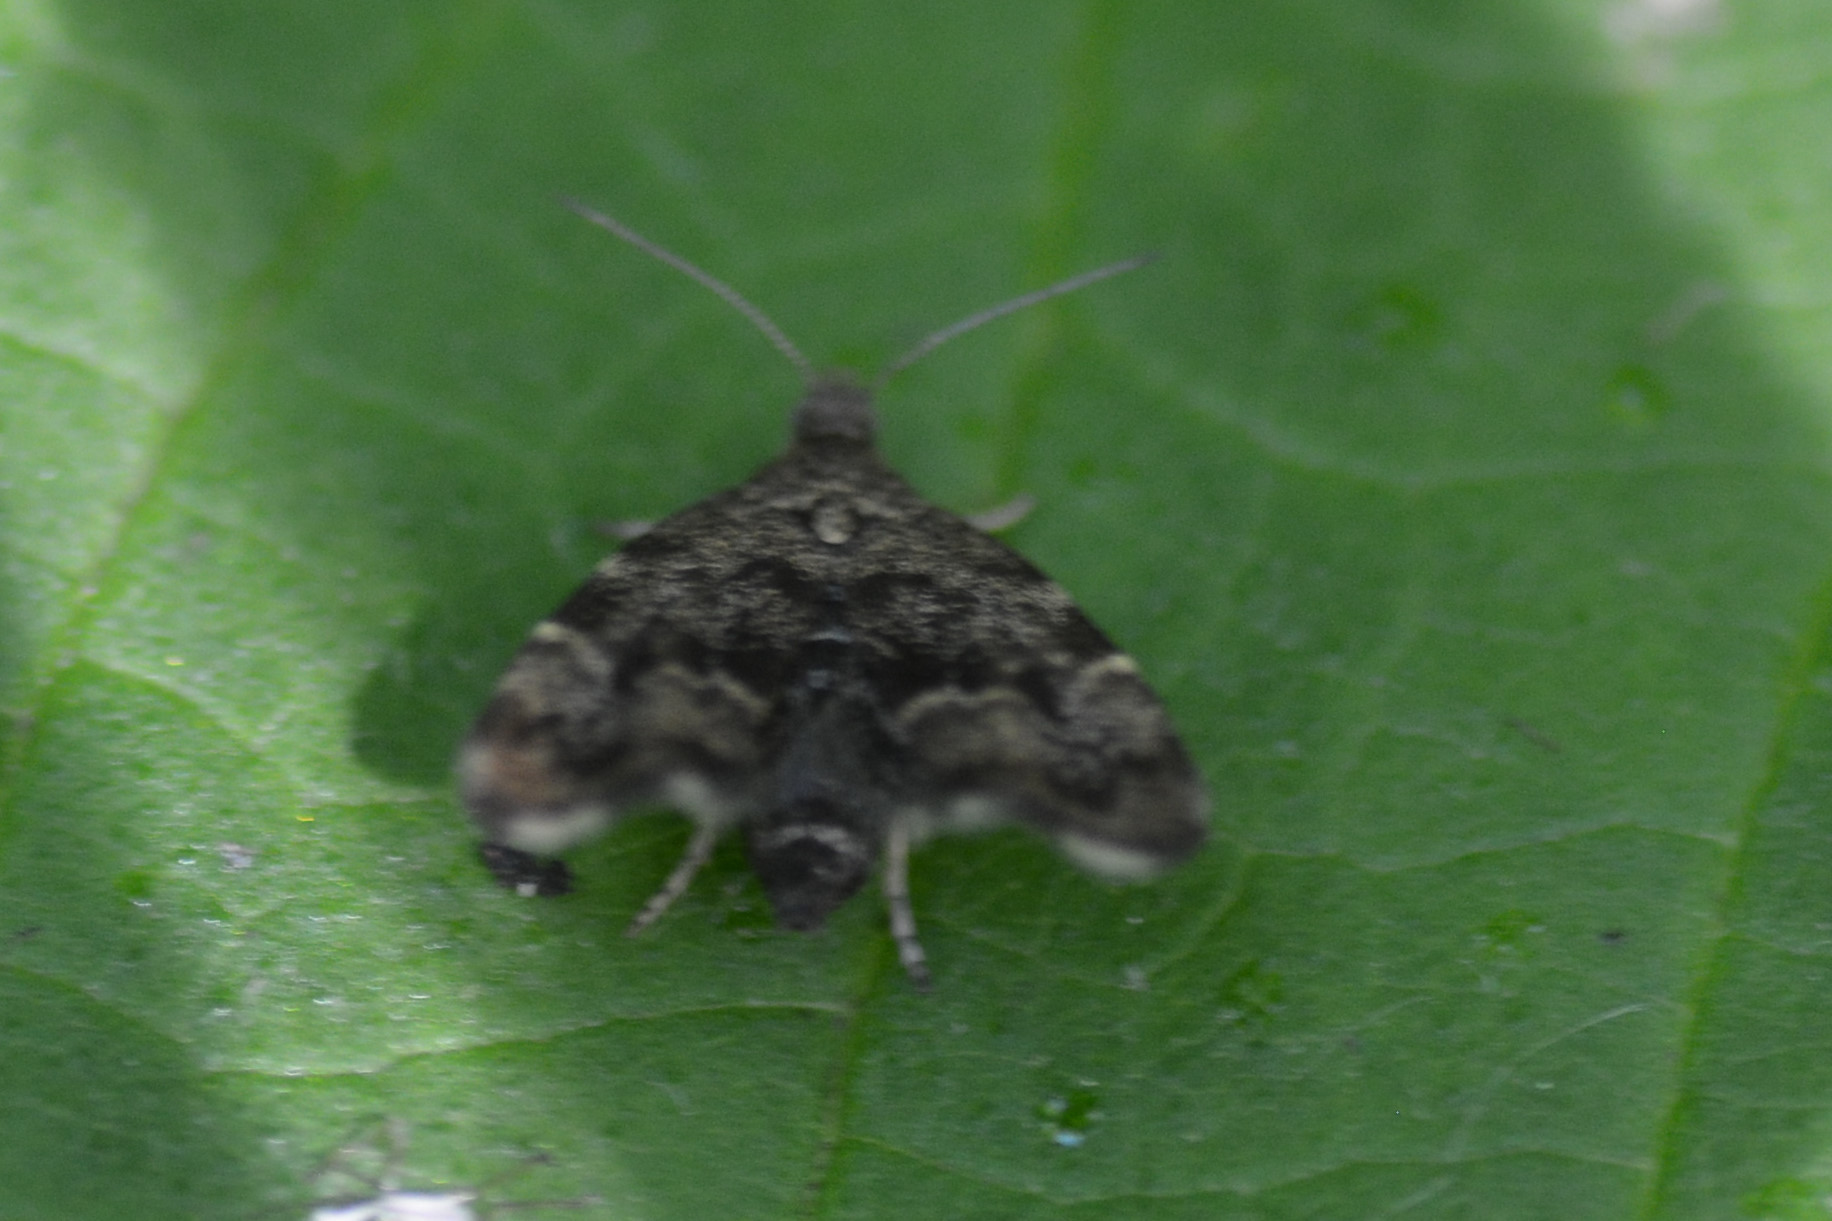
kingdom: Animalia
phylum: Arthropoda
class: Insecta
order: Lepidoptera
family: Choreutidae
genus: Anthophila
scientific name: Anthophila fabriciana
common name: Nettle-tap
